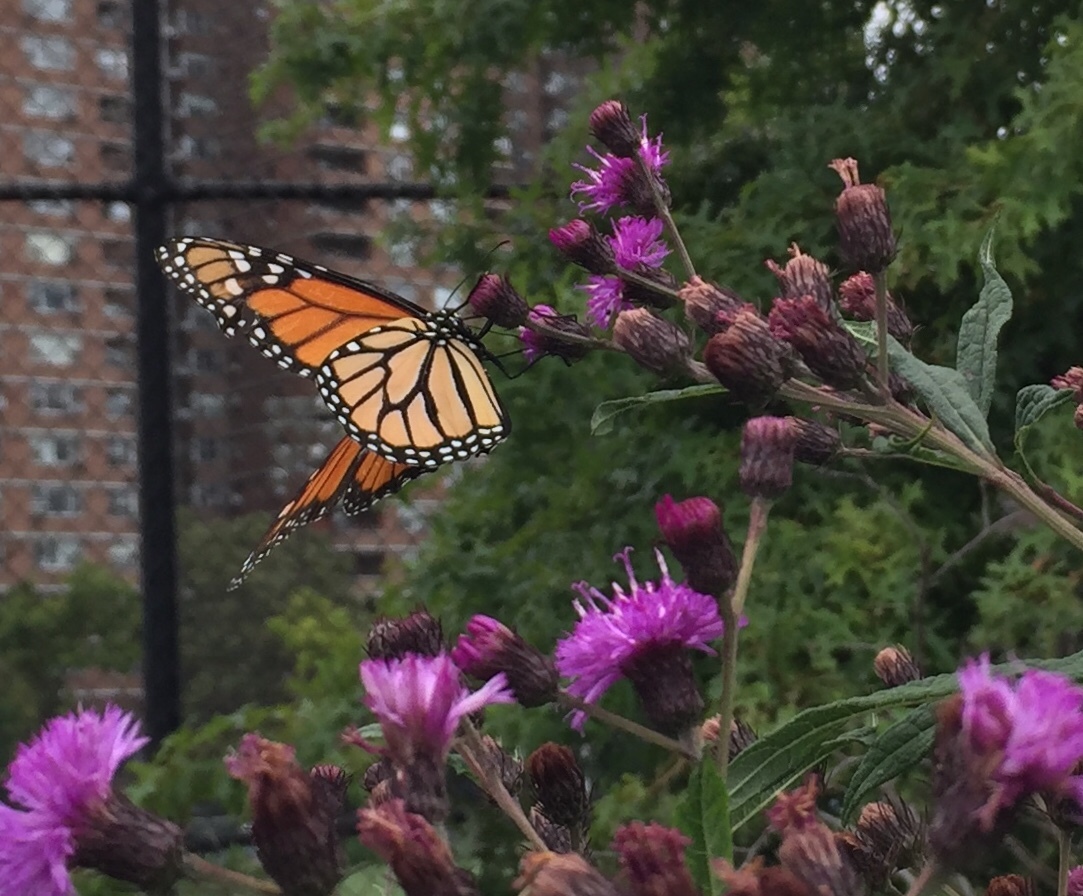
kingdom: Animalia
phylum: Arthropoda
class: Insecta
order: Lepidoptera
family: Nymphalidae
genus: Danaus
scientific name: Danaus plexippus
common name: Monarch
